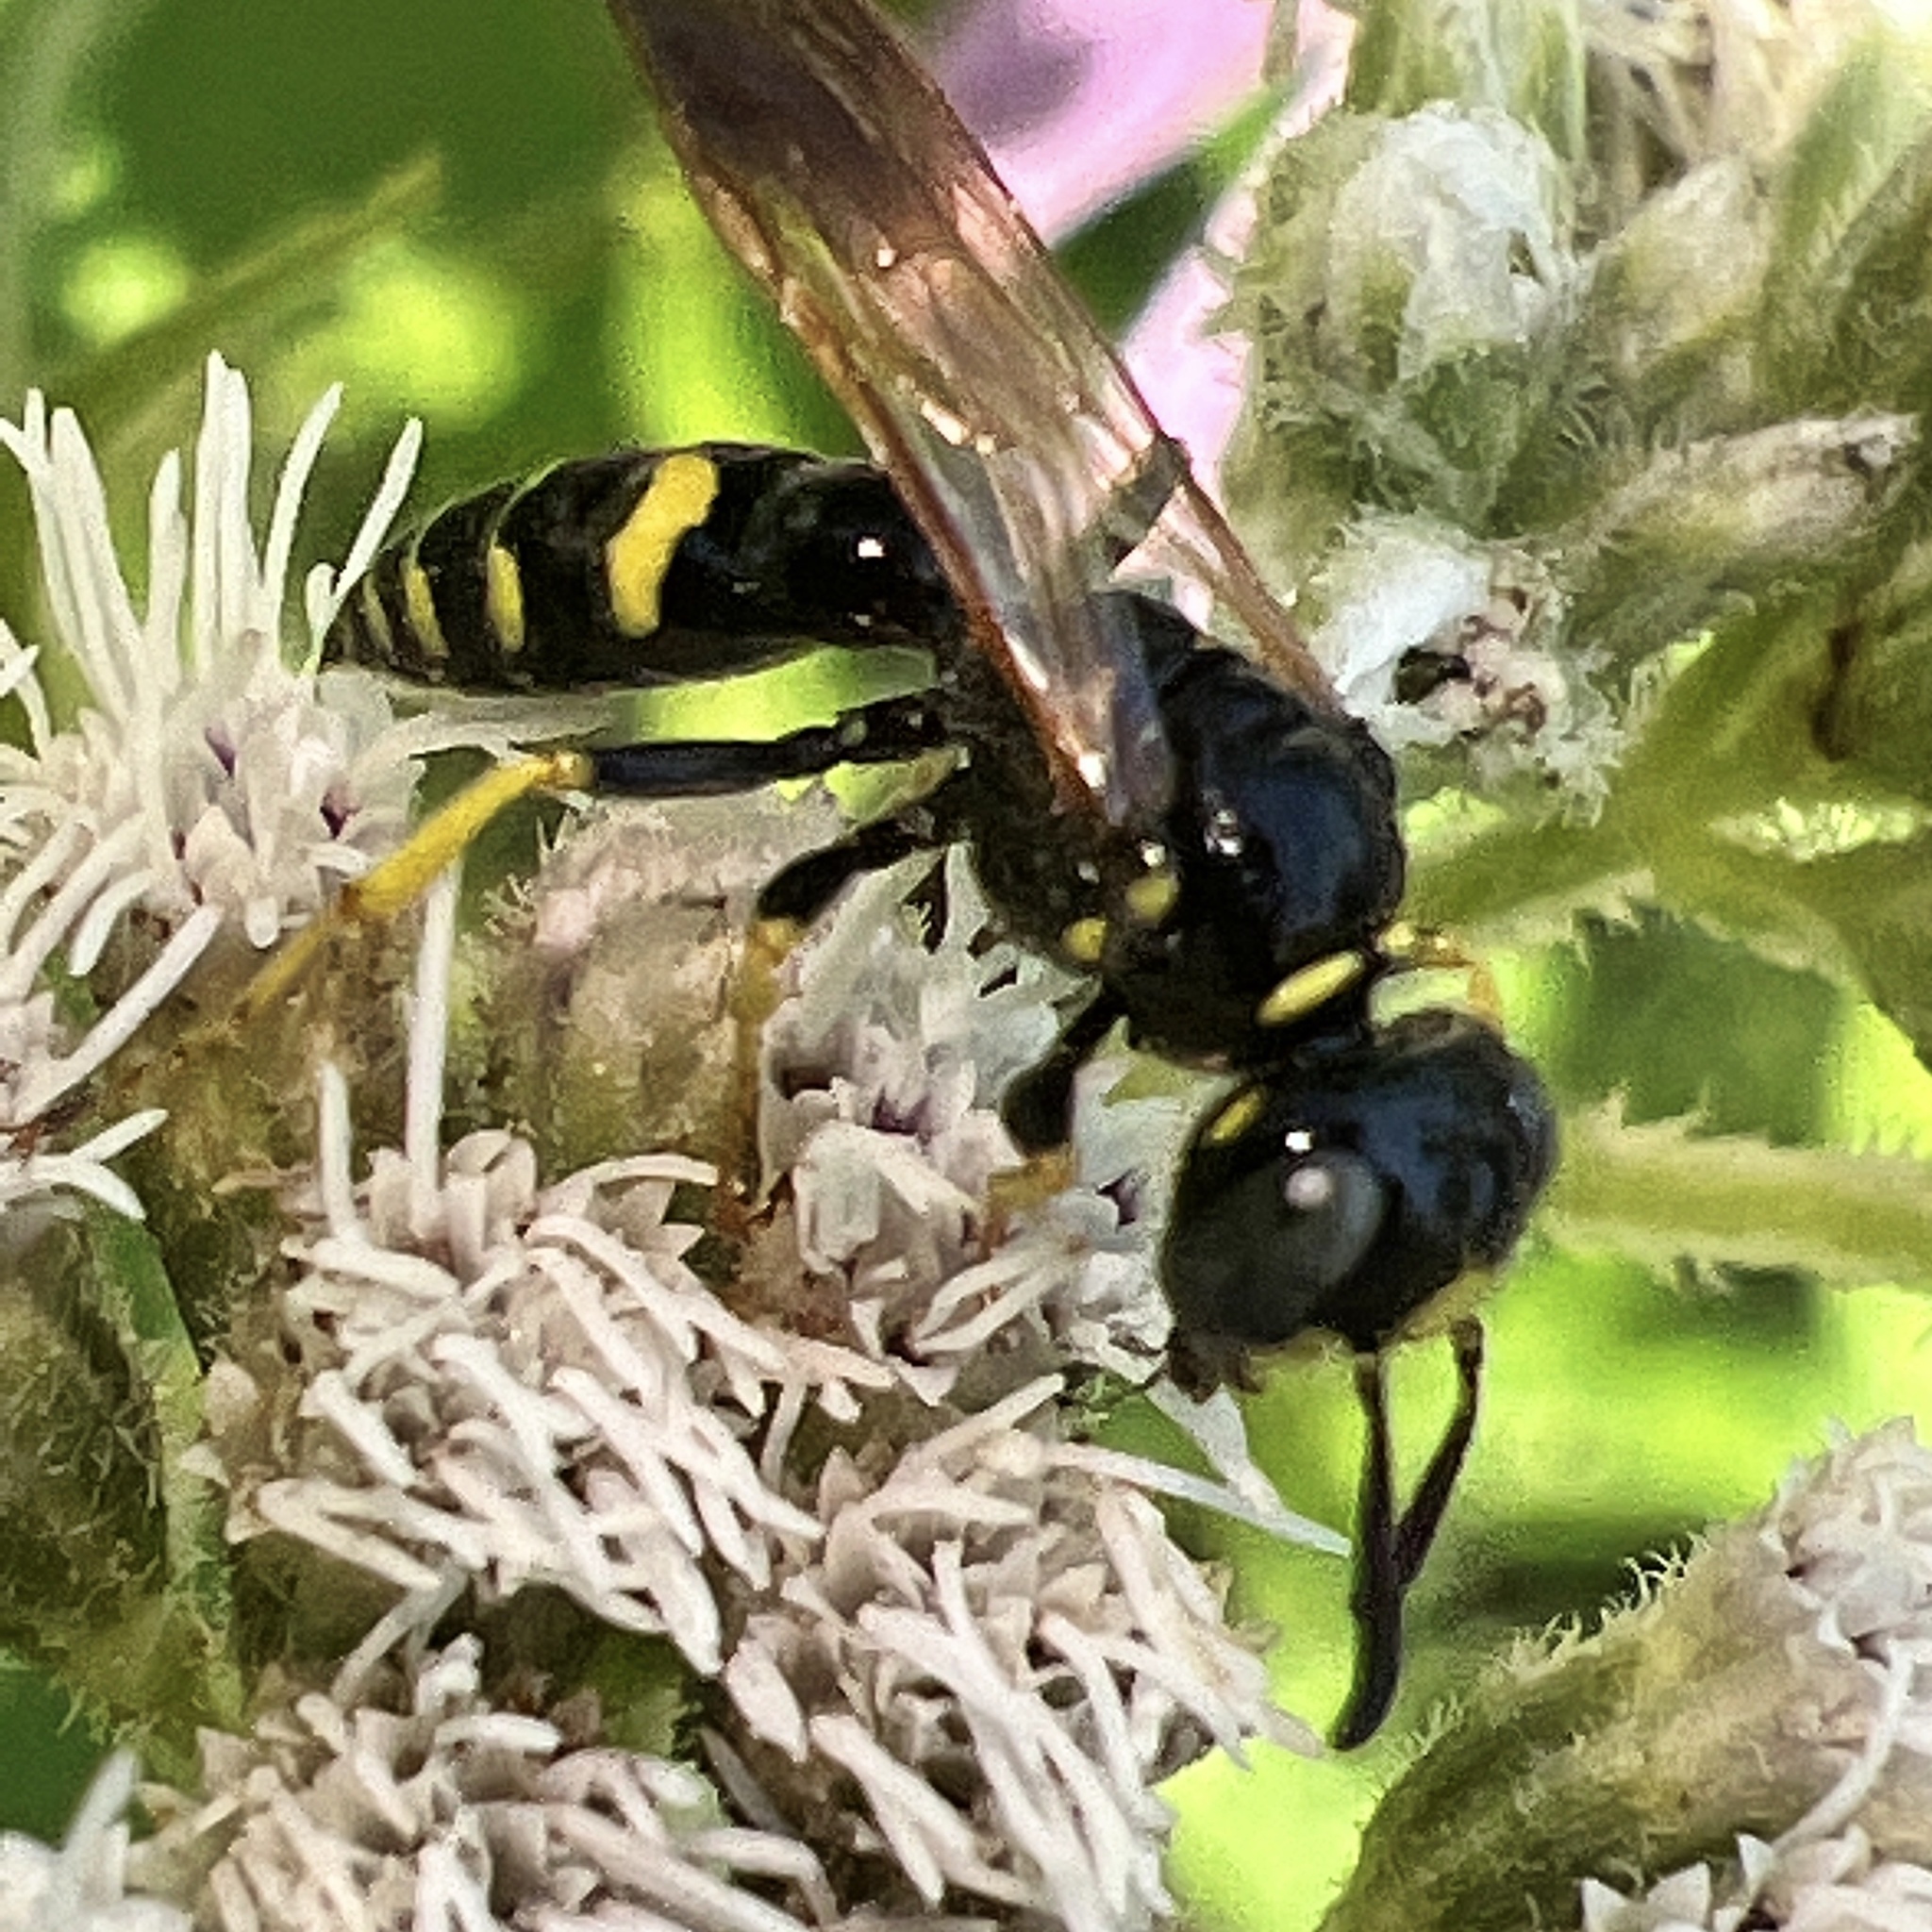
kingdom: Animalia
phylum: Arthropoda
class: Insecta
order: Hymenoptera
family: Crabronidae
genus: Philanthus
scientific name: Philanthus bilunatus
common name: Two moons beewolf
